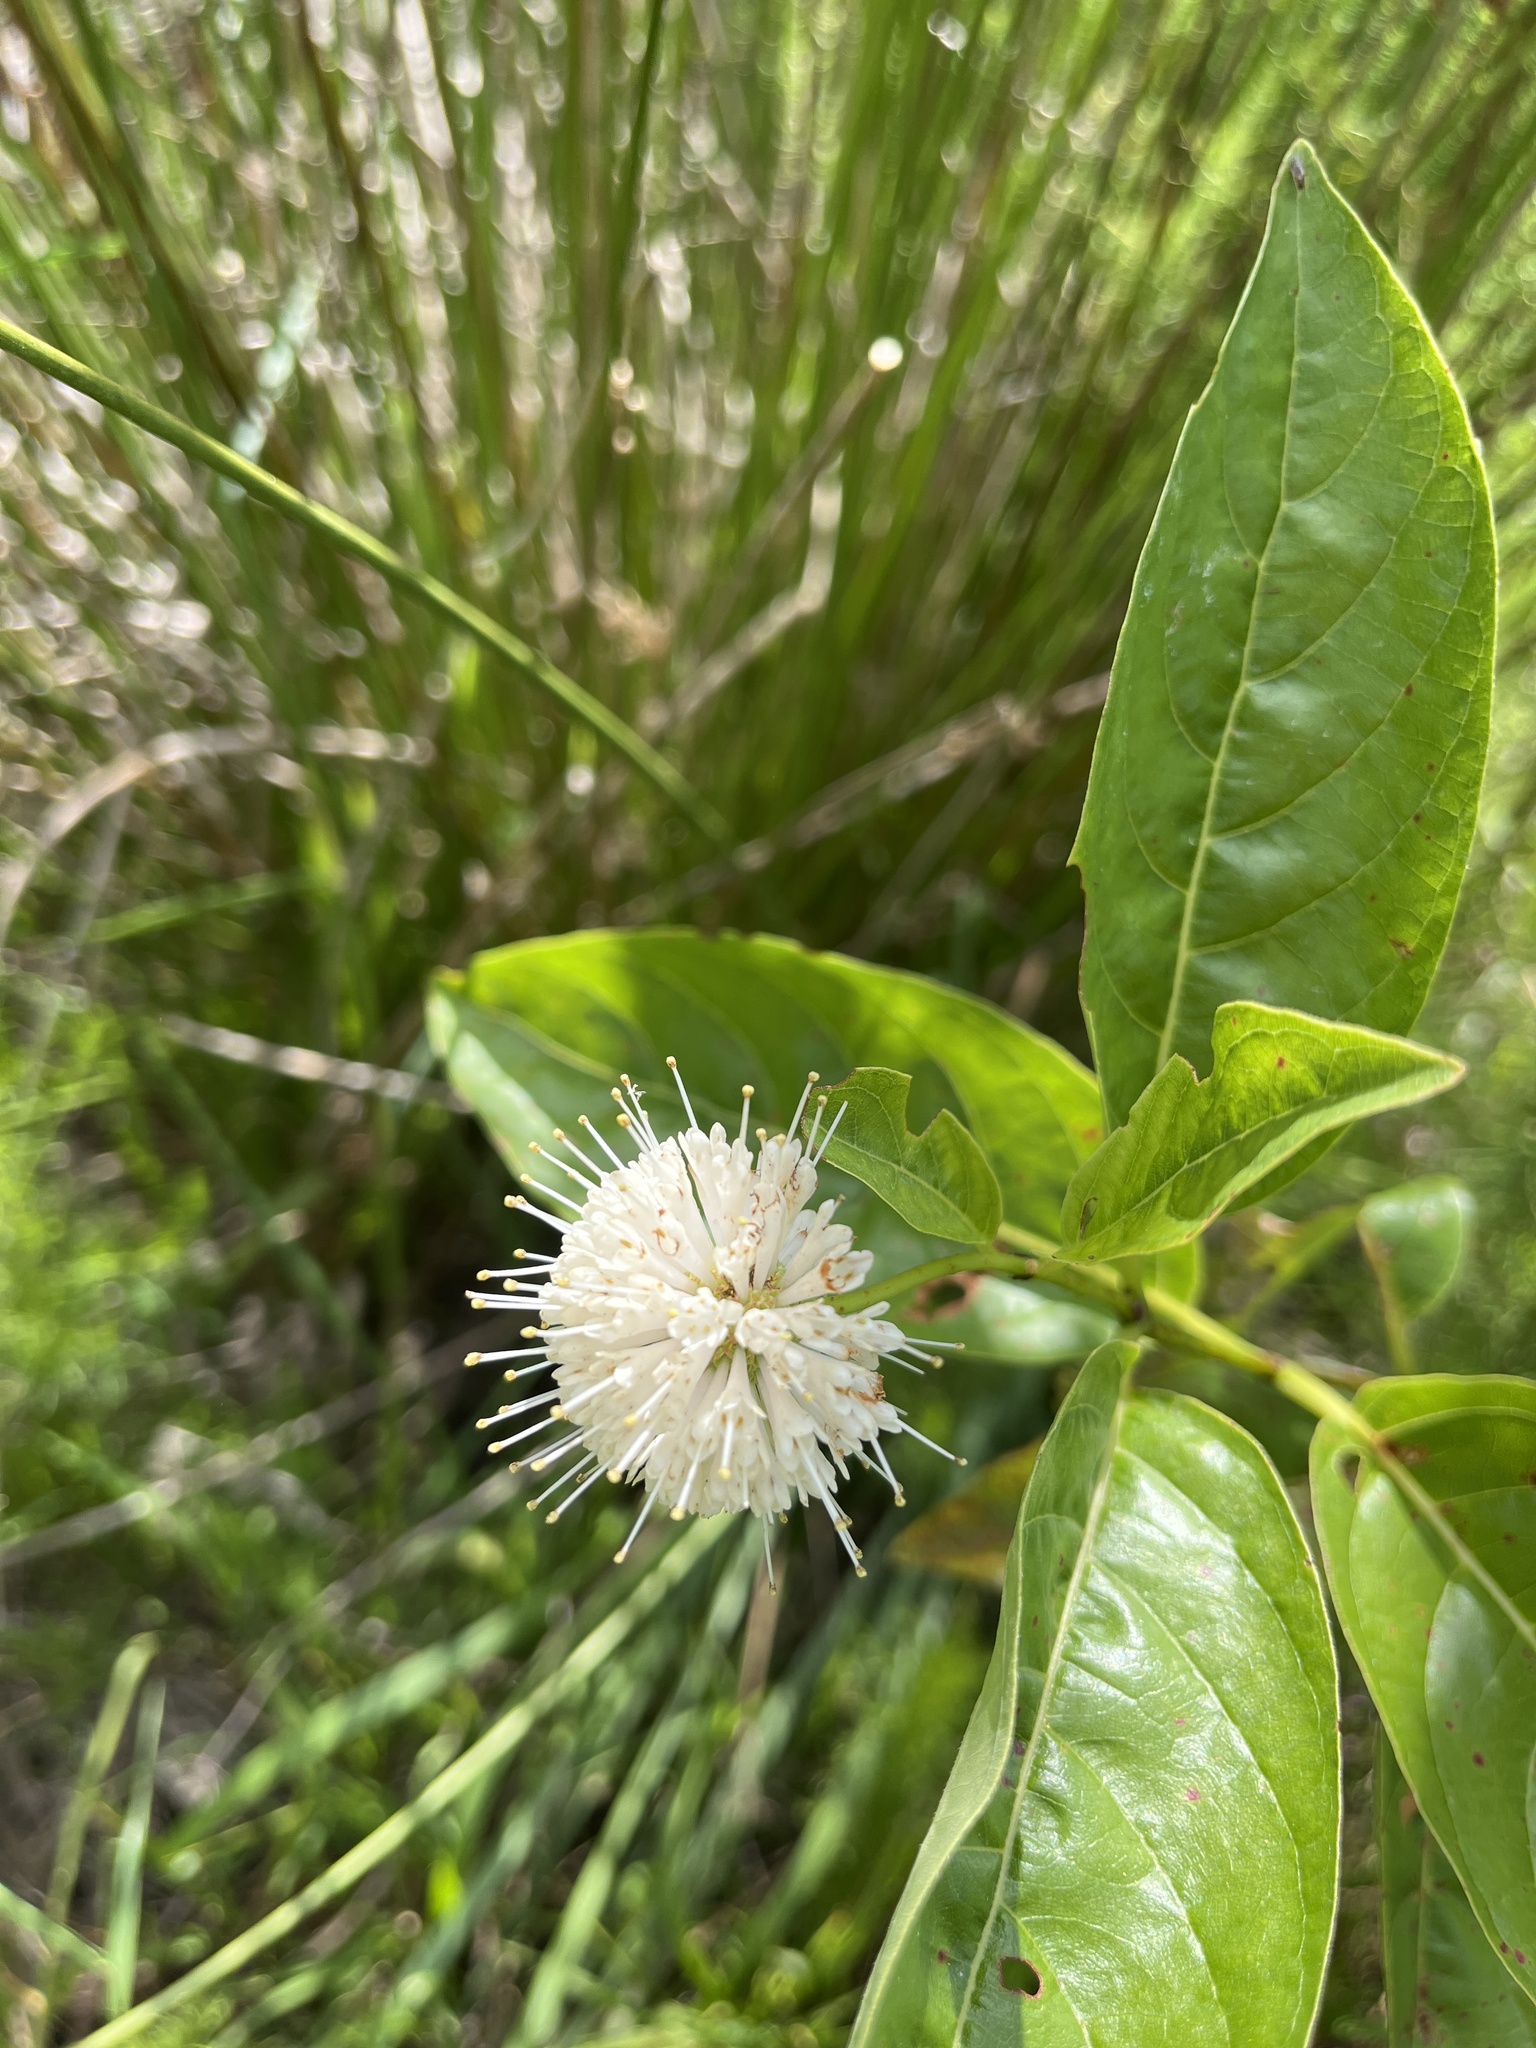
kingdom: Plantae
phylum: Tracheophyta
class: Magnoliopsida
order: Gentianales
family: Rubiaceae
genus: Cephalanthus
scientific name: Cephalanthus occidentalis
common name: Button-willow
